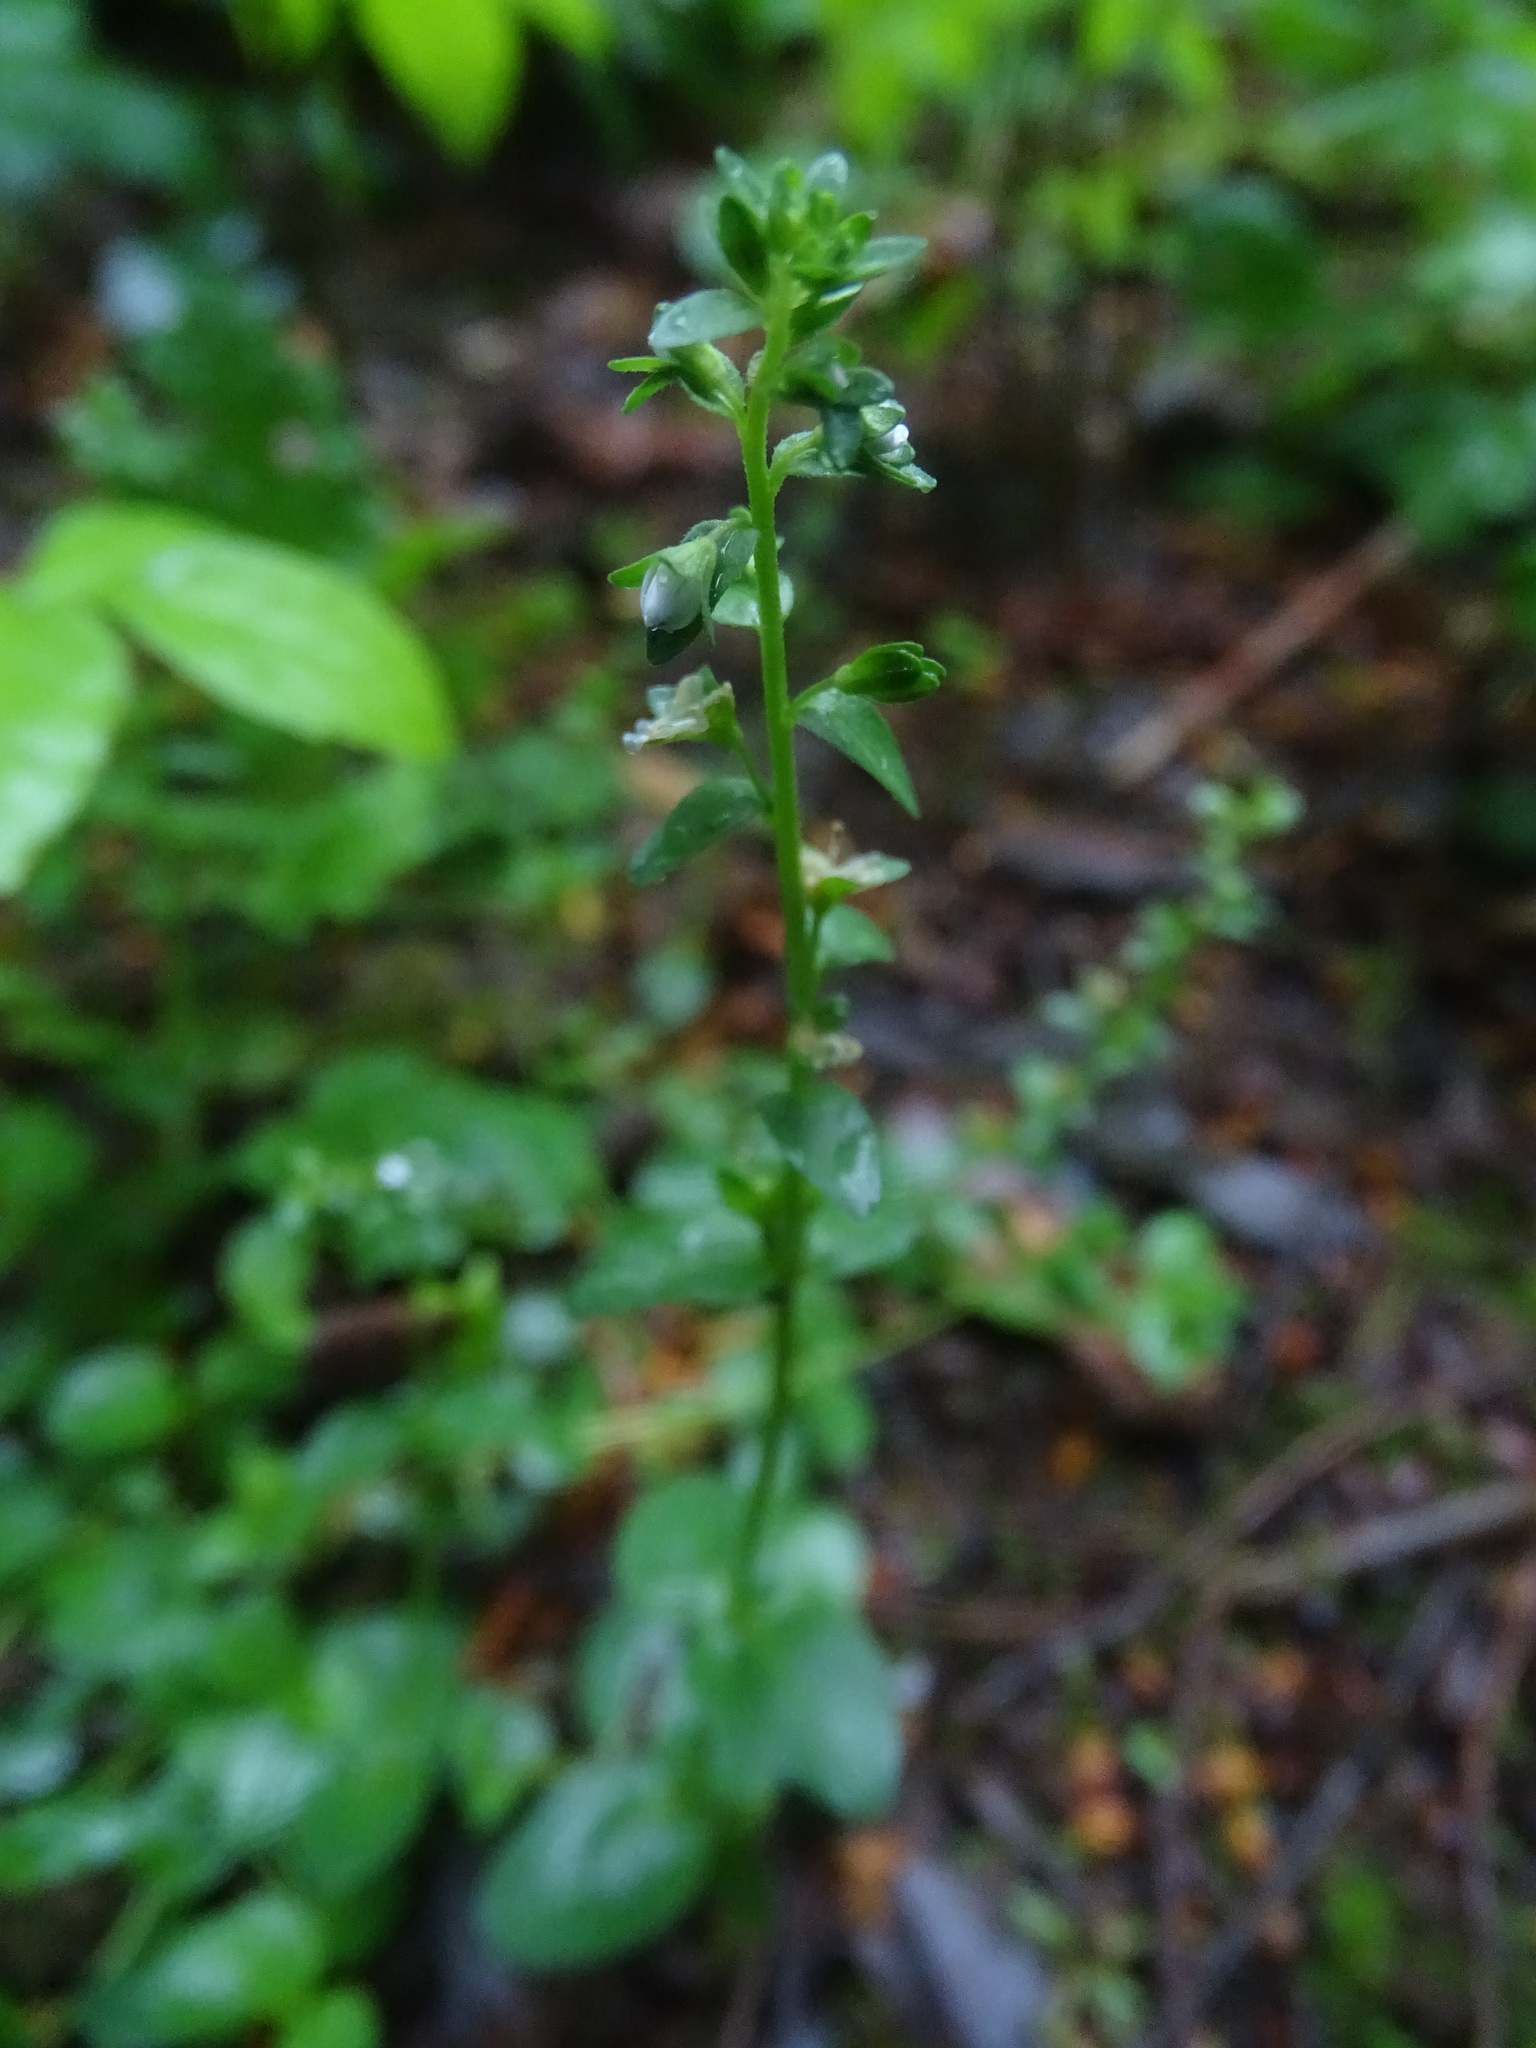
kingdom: Plantae
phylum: Tracheophyta
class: Magnoliopsida
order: Lamiales
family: Plantaginaceae
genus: Veronica
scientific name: Veronica serpyllifolia
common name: Thyme-leaved speedwell
